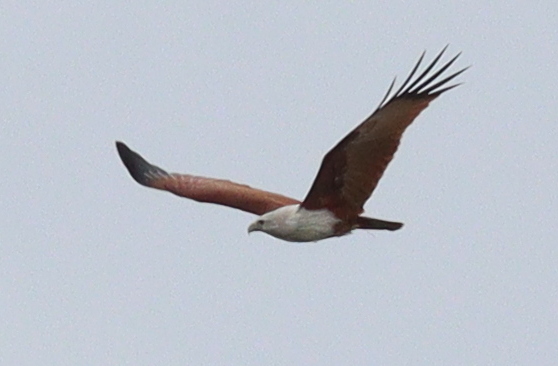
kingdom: Animalia
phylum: Chordata
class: Aves
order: Accipitriformes
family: Accipitridae
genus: Haliastur
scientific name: Haliastur indus
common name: Brahminy kite
